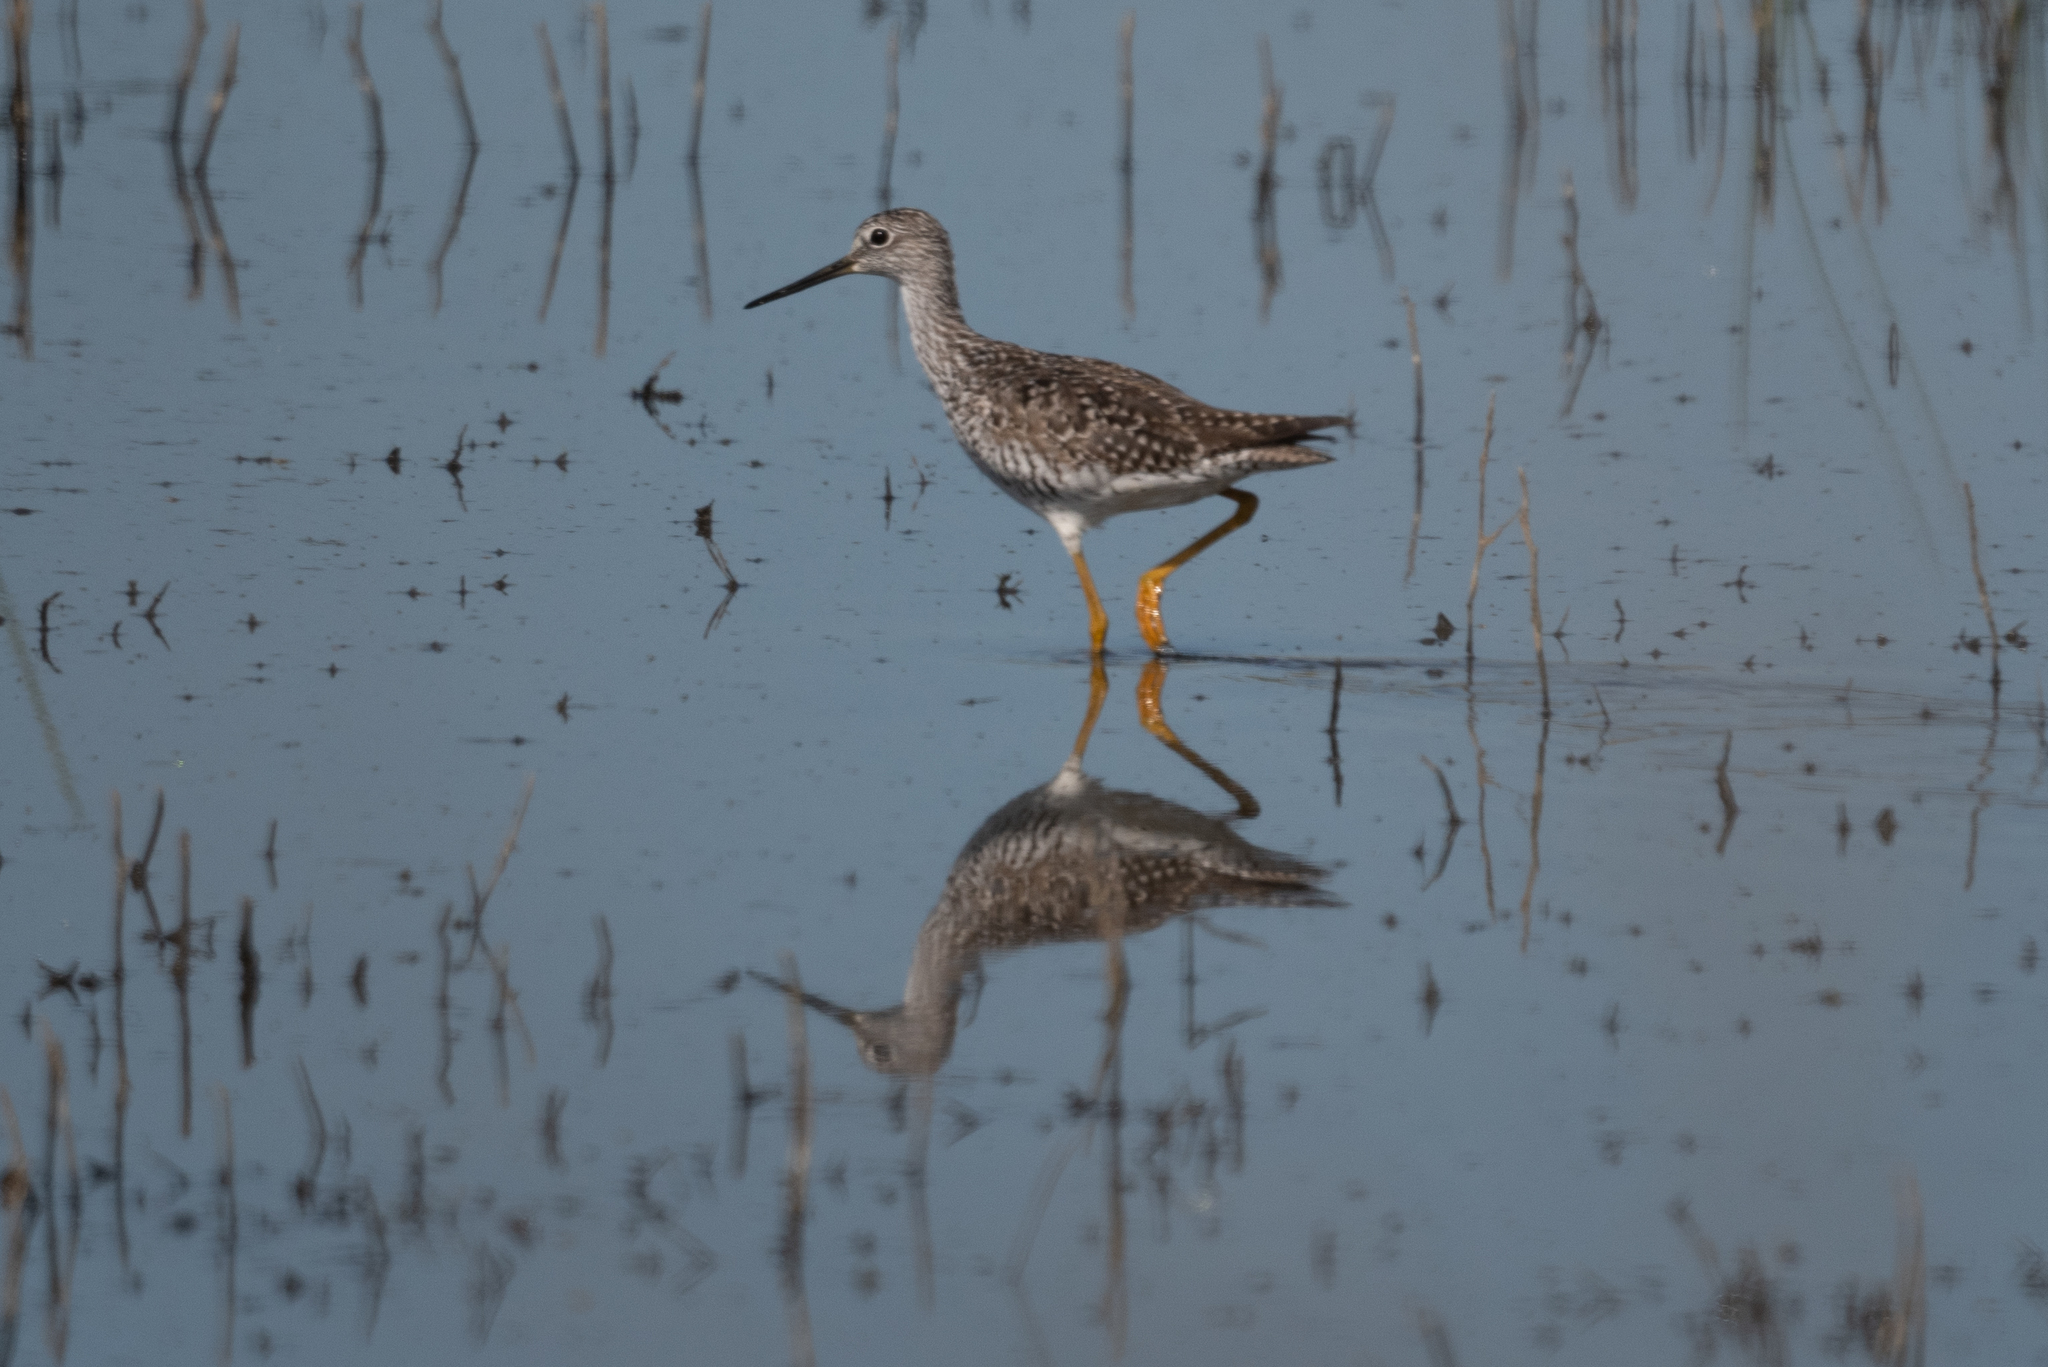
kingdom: Animalia
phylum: Chordata
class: Aves
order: Charadriiformes
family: Scolopacidae
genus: Tringa
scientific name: Tringa melanoleuca
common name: Greater yellowlegs
